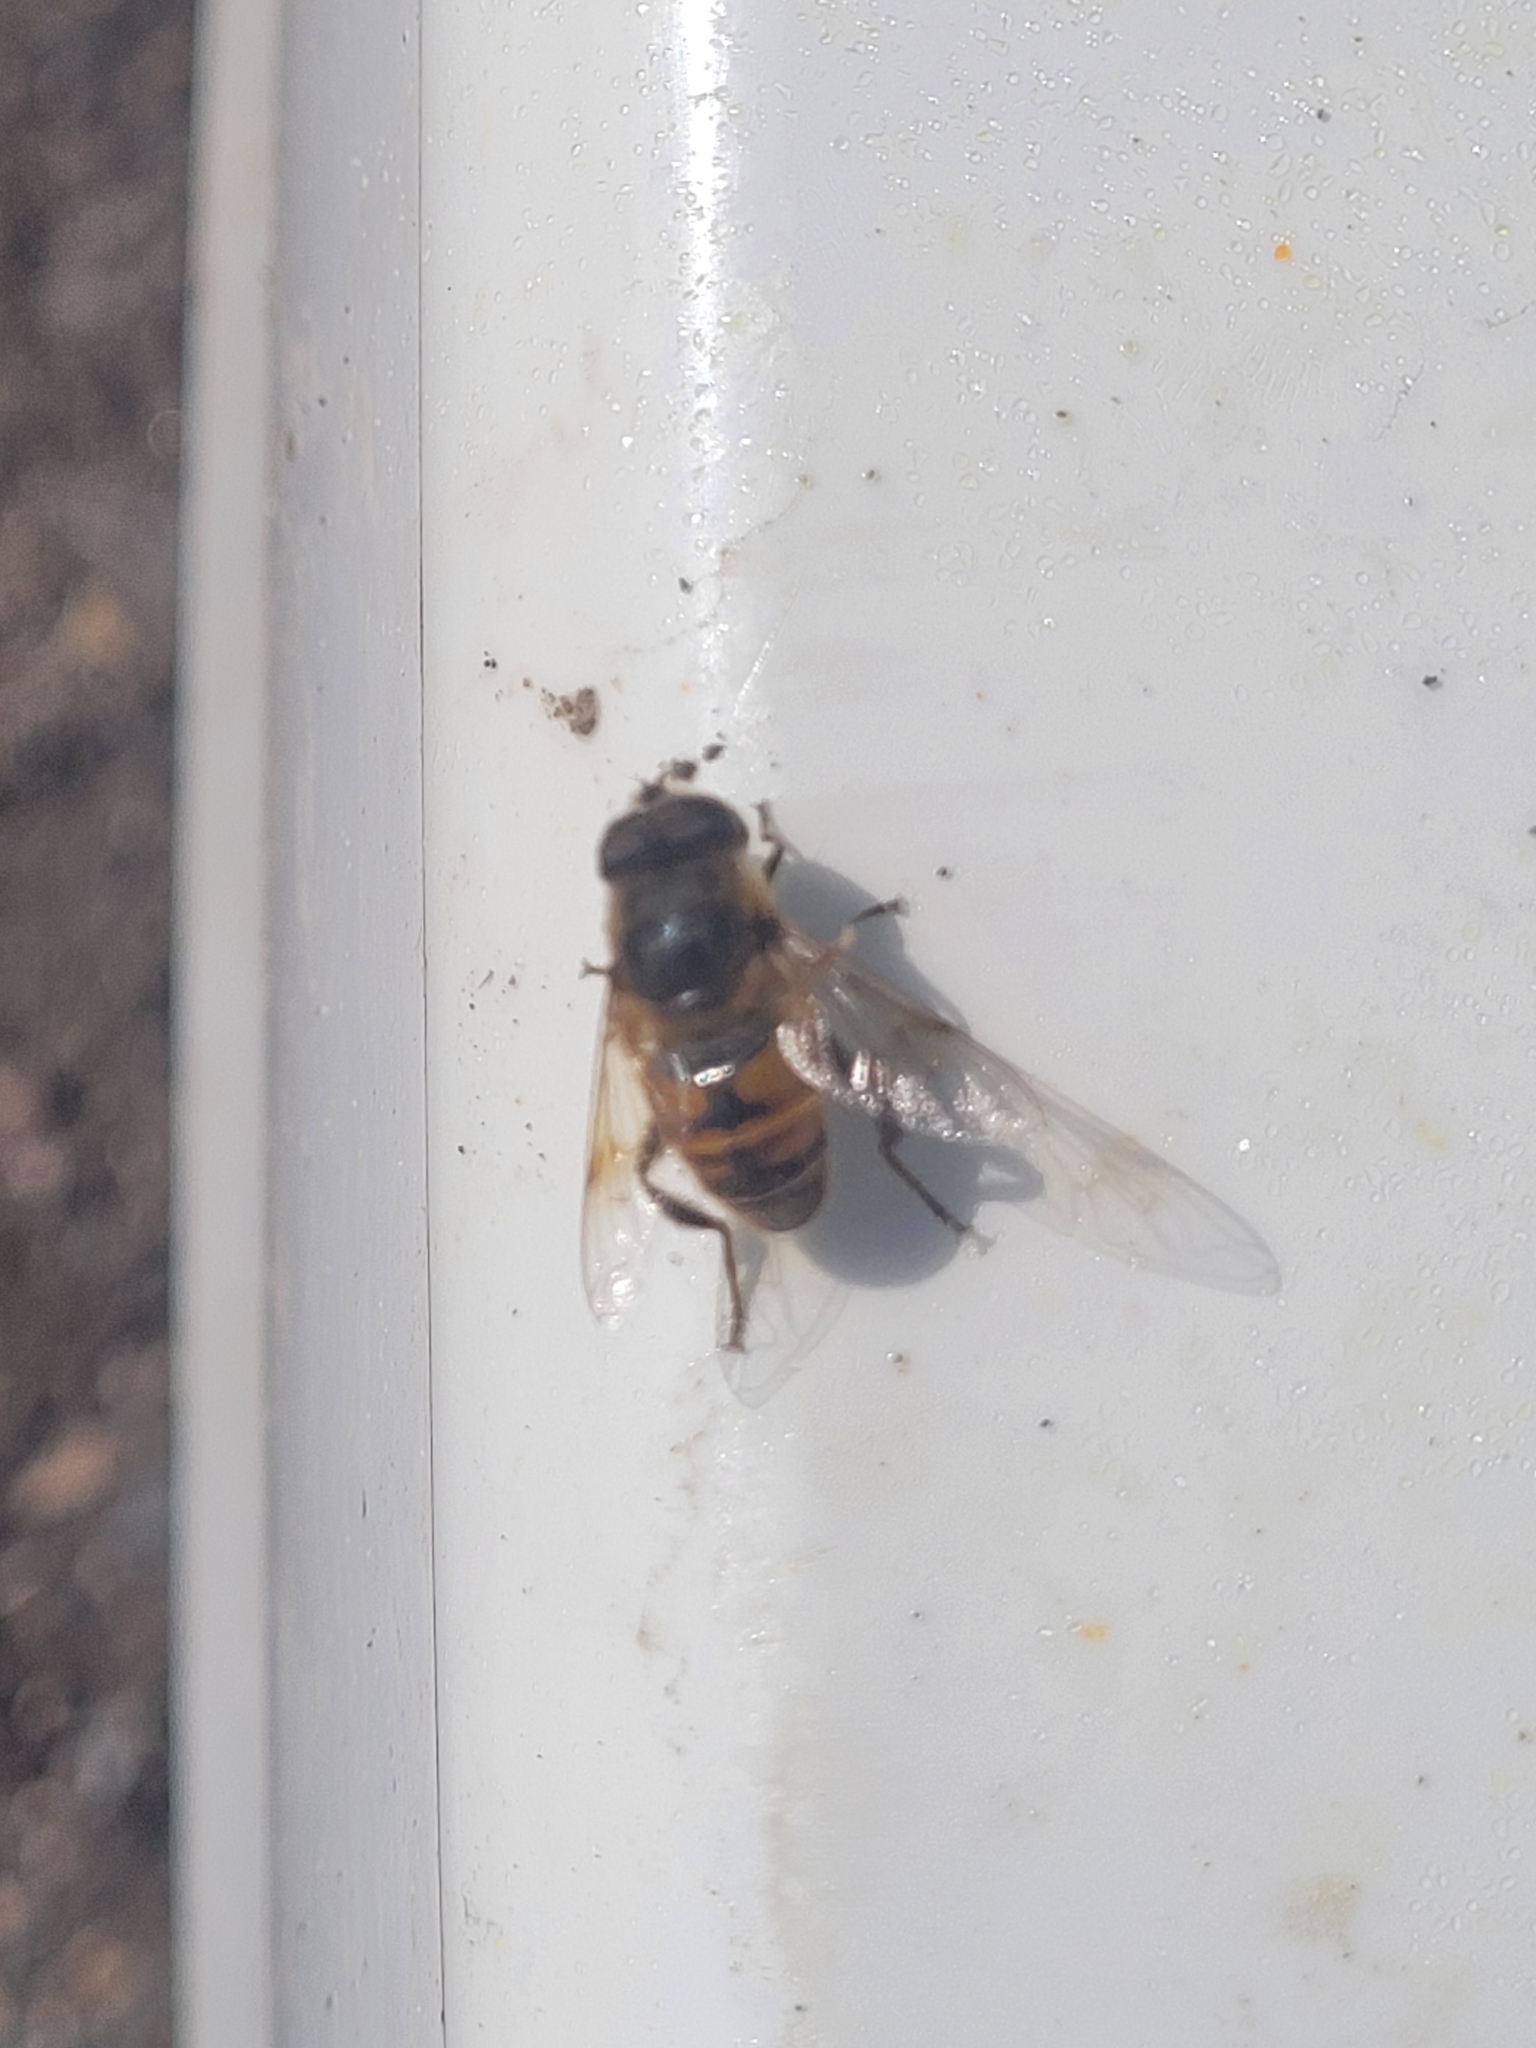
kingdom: Animalia
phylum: Arthropoda
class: Insecta
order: Diptera
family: Syrphidae
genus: Eristalis
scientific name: Eristalis tenax
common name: Drone fly
